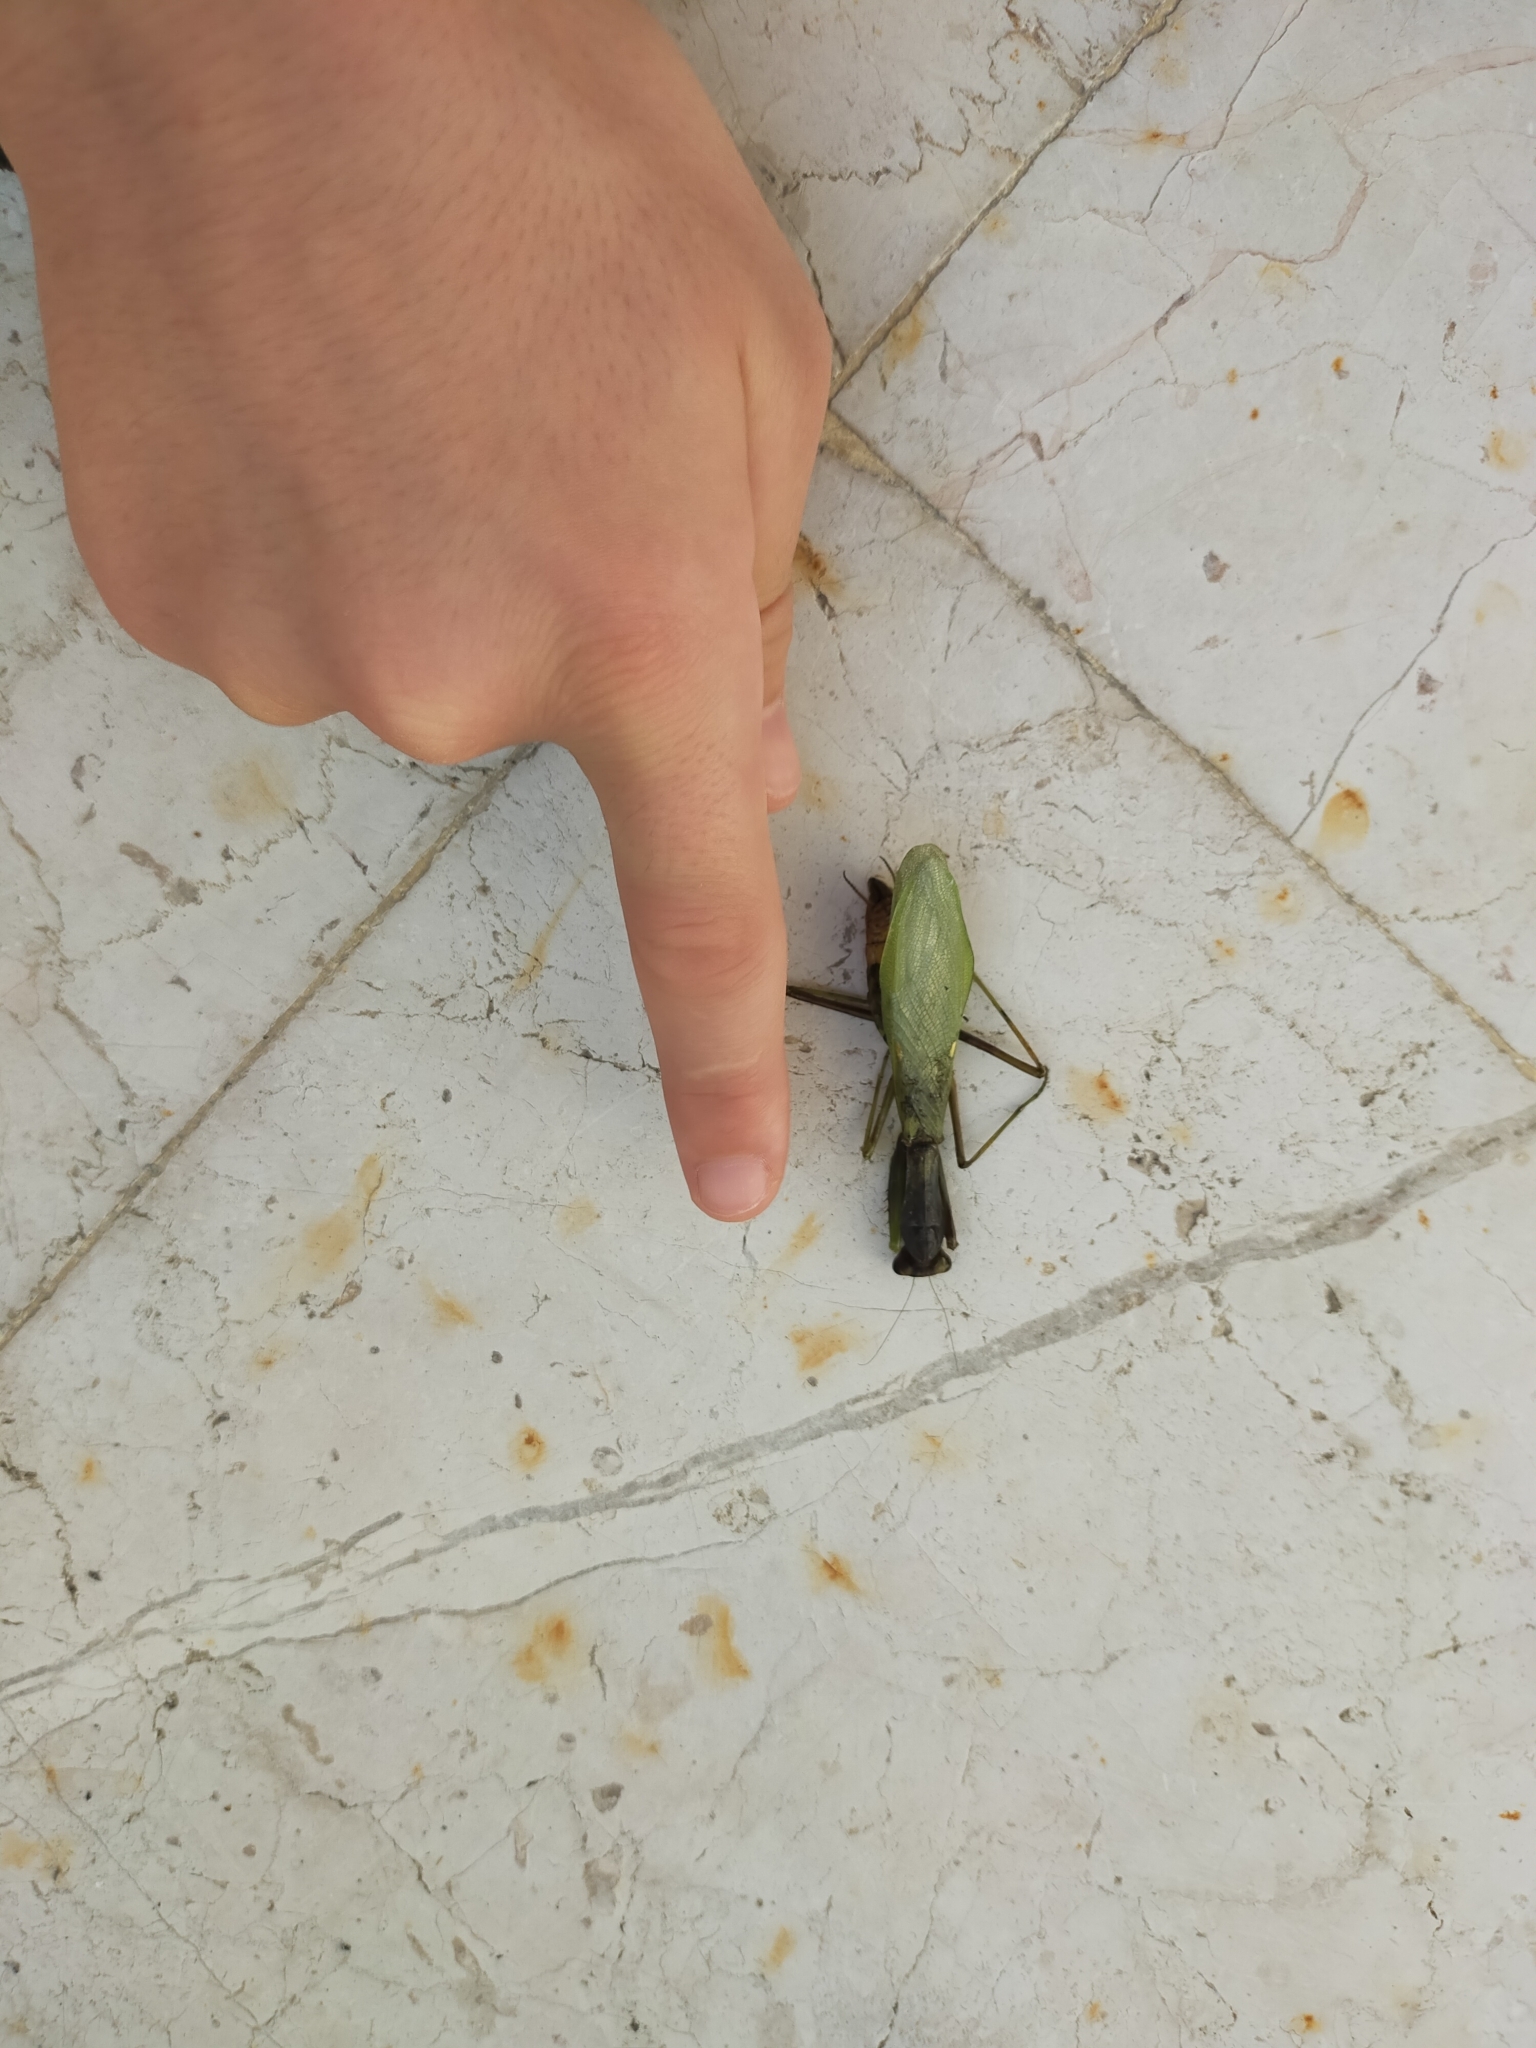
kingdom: Animalia
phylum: Arthropoda
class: Insecta
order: Mantodea
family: Mantidae
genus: Hierodula
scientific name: Hierodula transcaucasica
